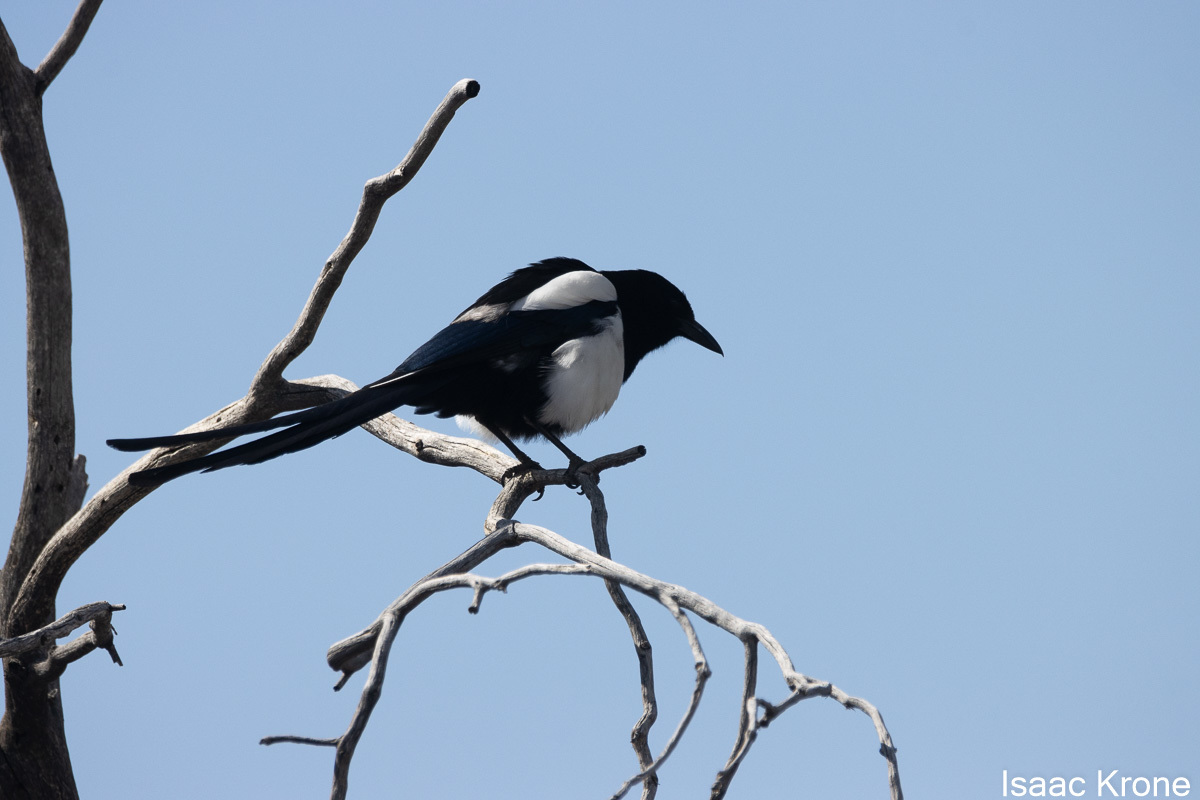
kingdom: Animalia
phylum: Chordata
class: Aves
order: Passeriformes
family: Corvidae
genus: Pica
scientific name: Pica hudsonia
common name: Black-billed magpie
